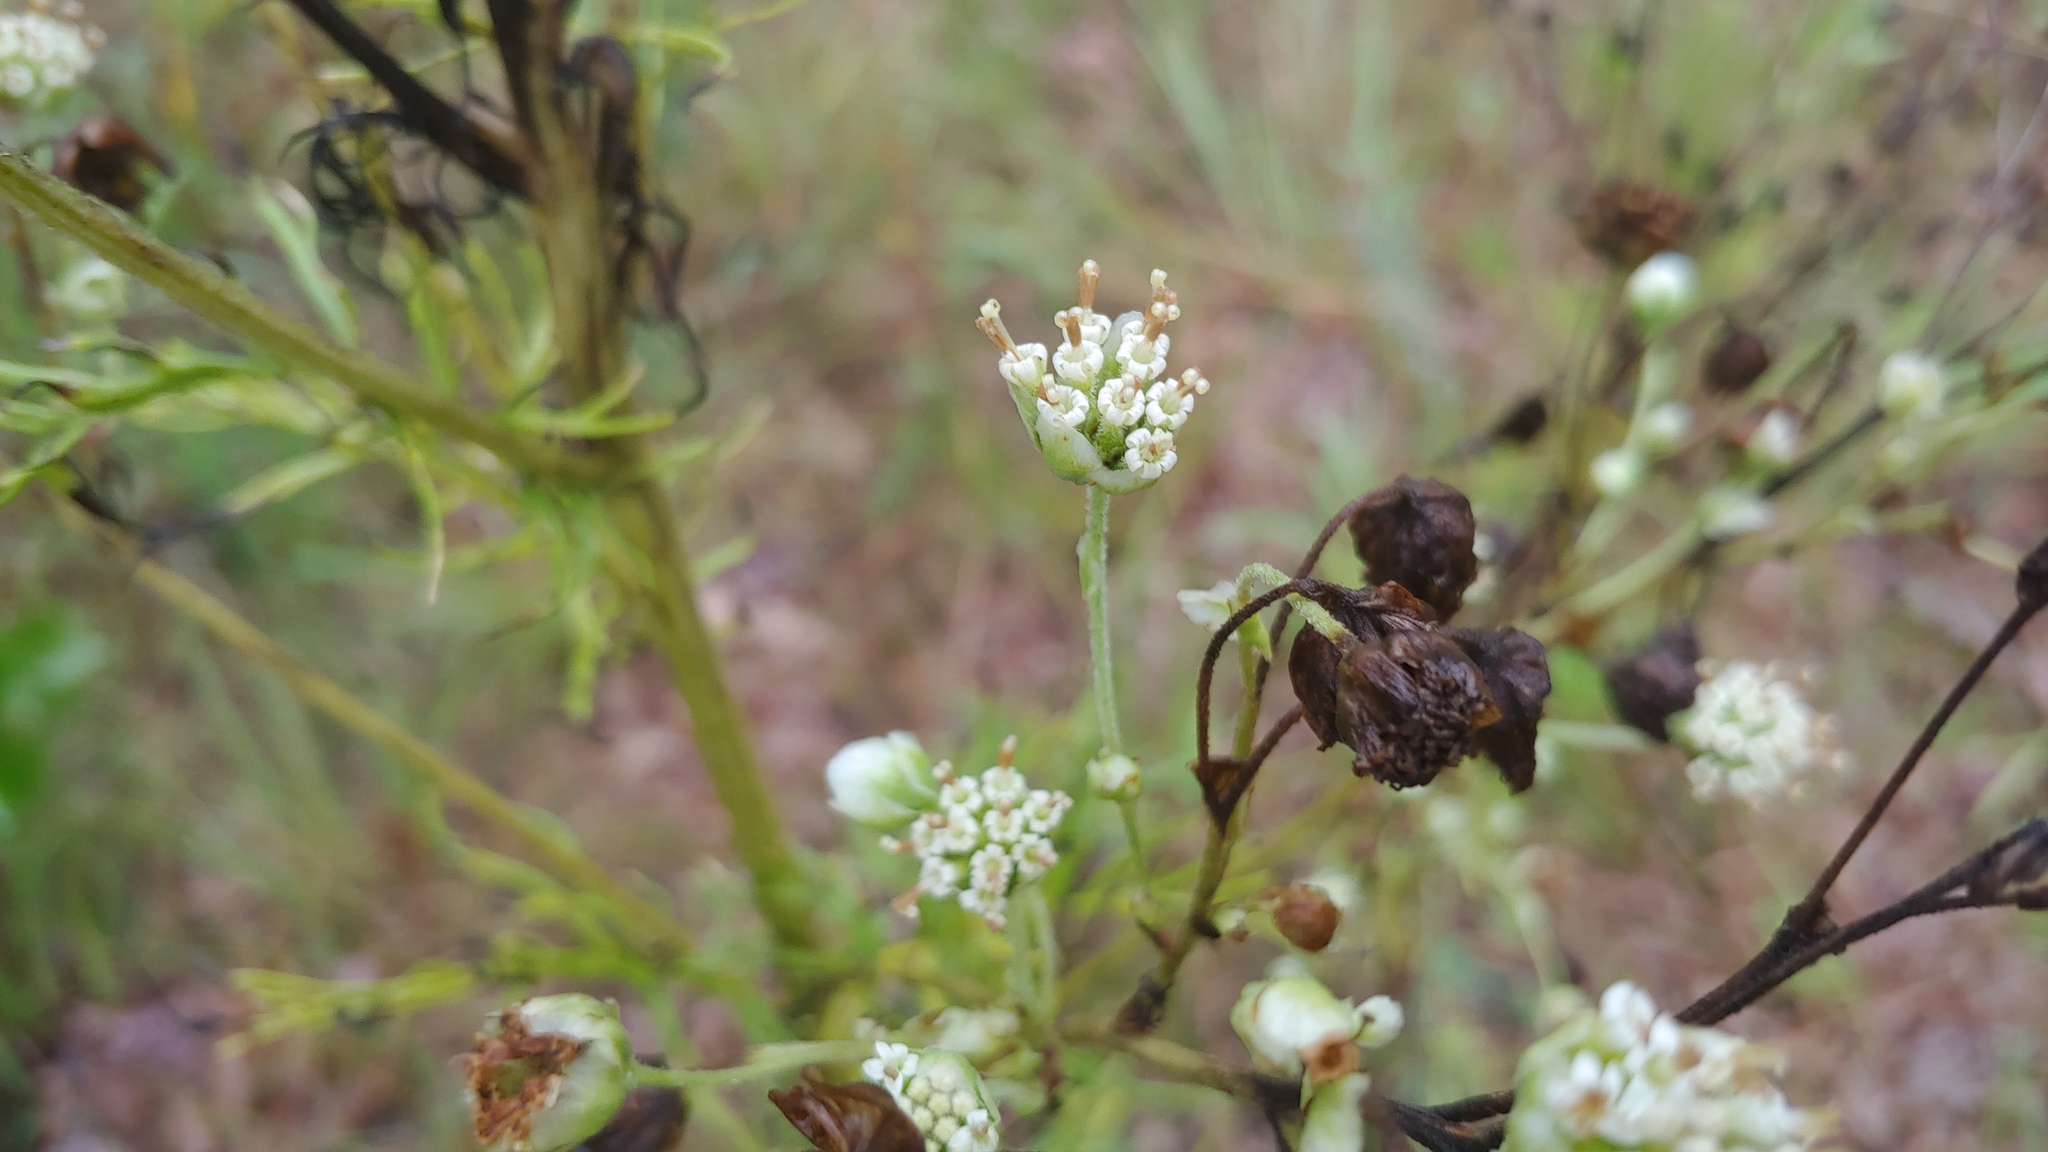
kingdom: Plantae
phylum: Tracheophyta
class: Magnoliopsida
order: Asterales
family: Asteraceae
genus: Hymenopappus
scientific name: Hymenopappus scabiosaeus
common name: Carolina woollywhite
